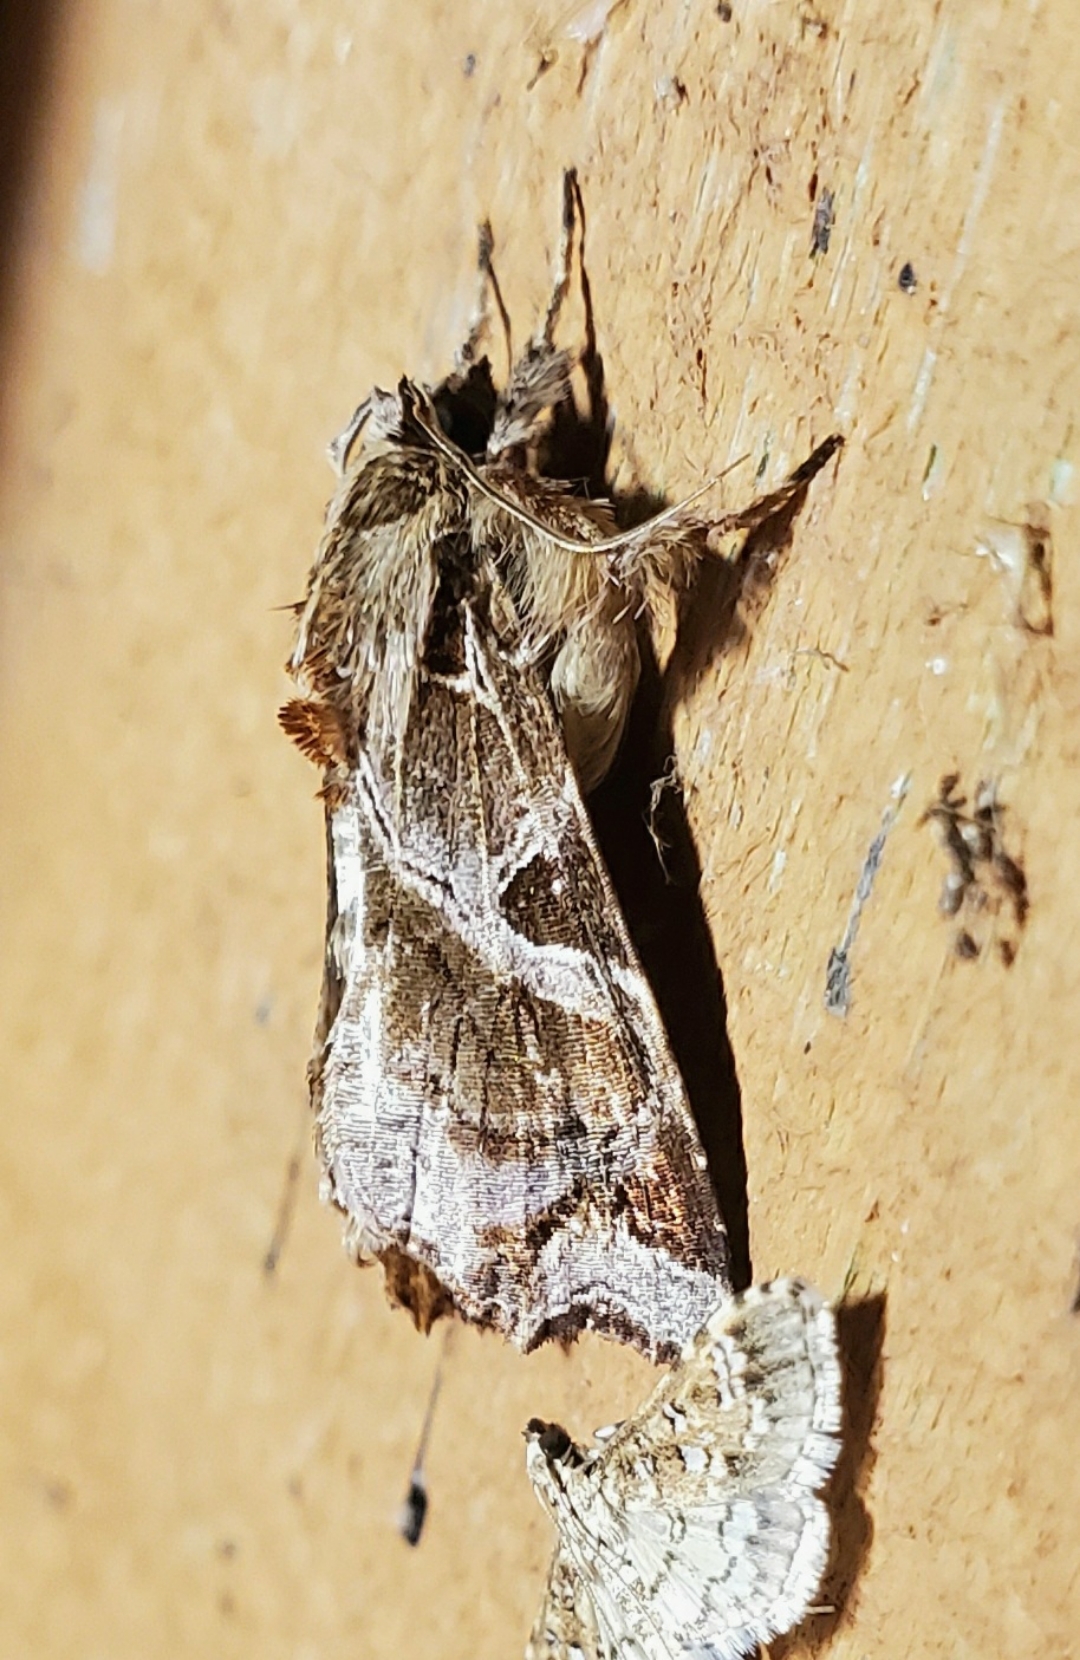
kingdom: Animalia
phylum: Arthropoda
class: Insecta
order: Lepidoptera
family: Noctuidae
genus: Callopistria
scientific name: Callopistria floridensis
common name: Florida fern moth
